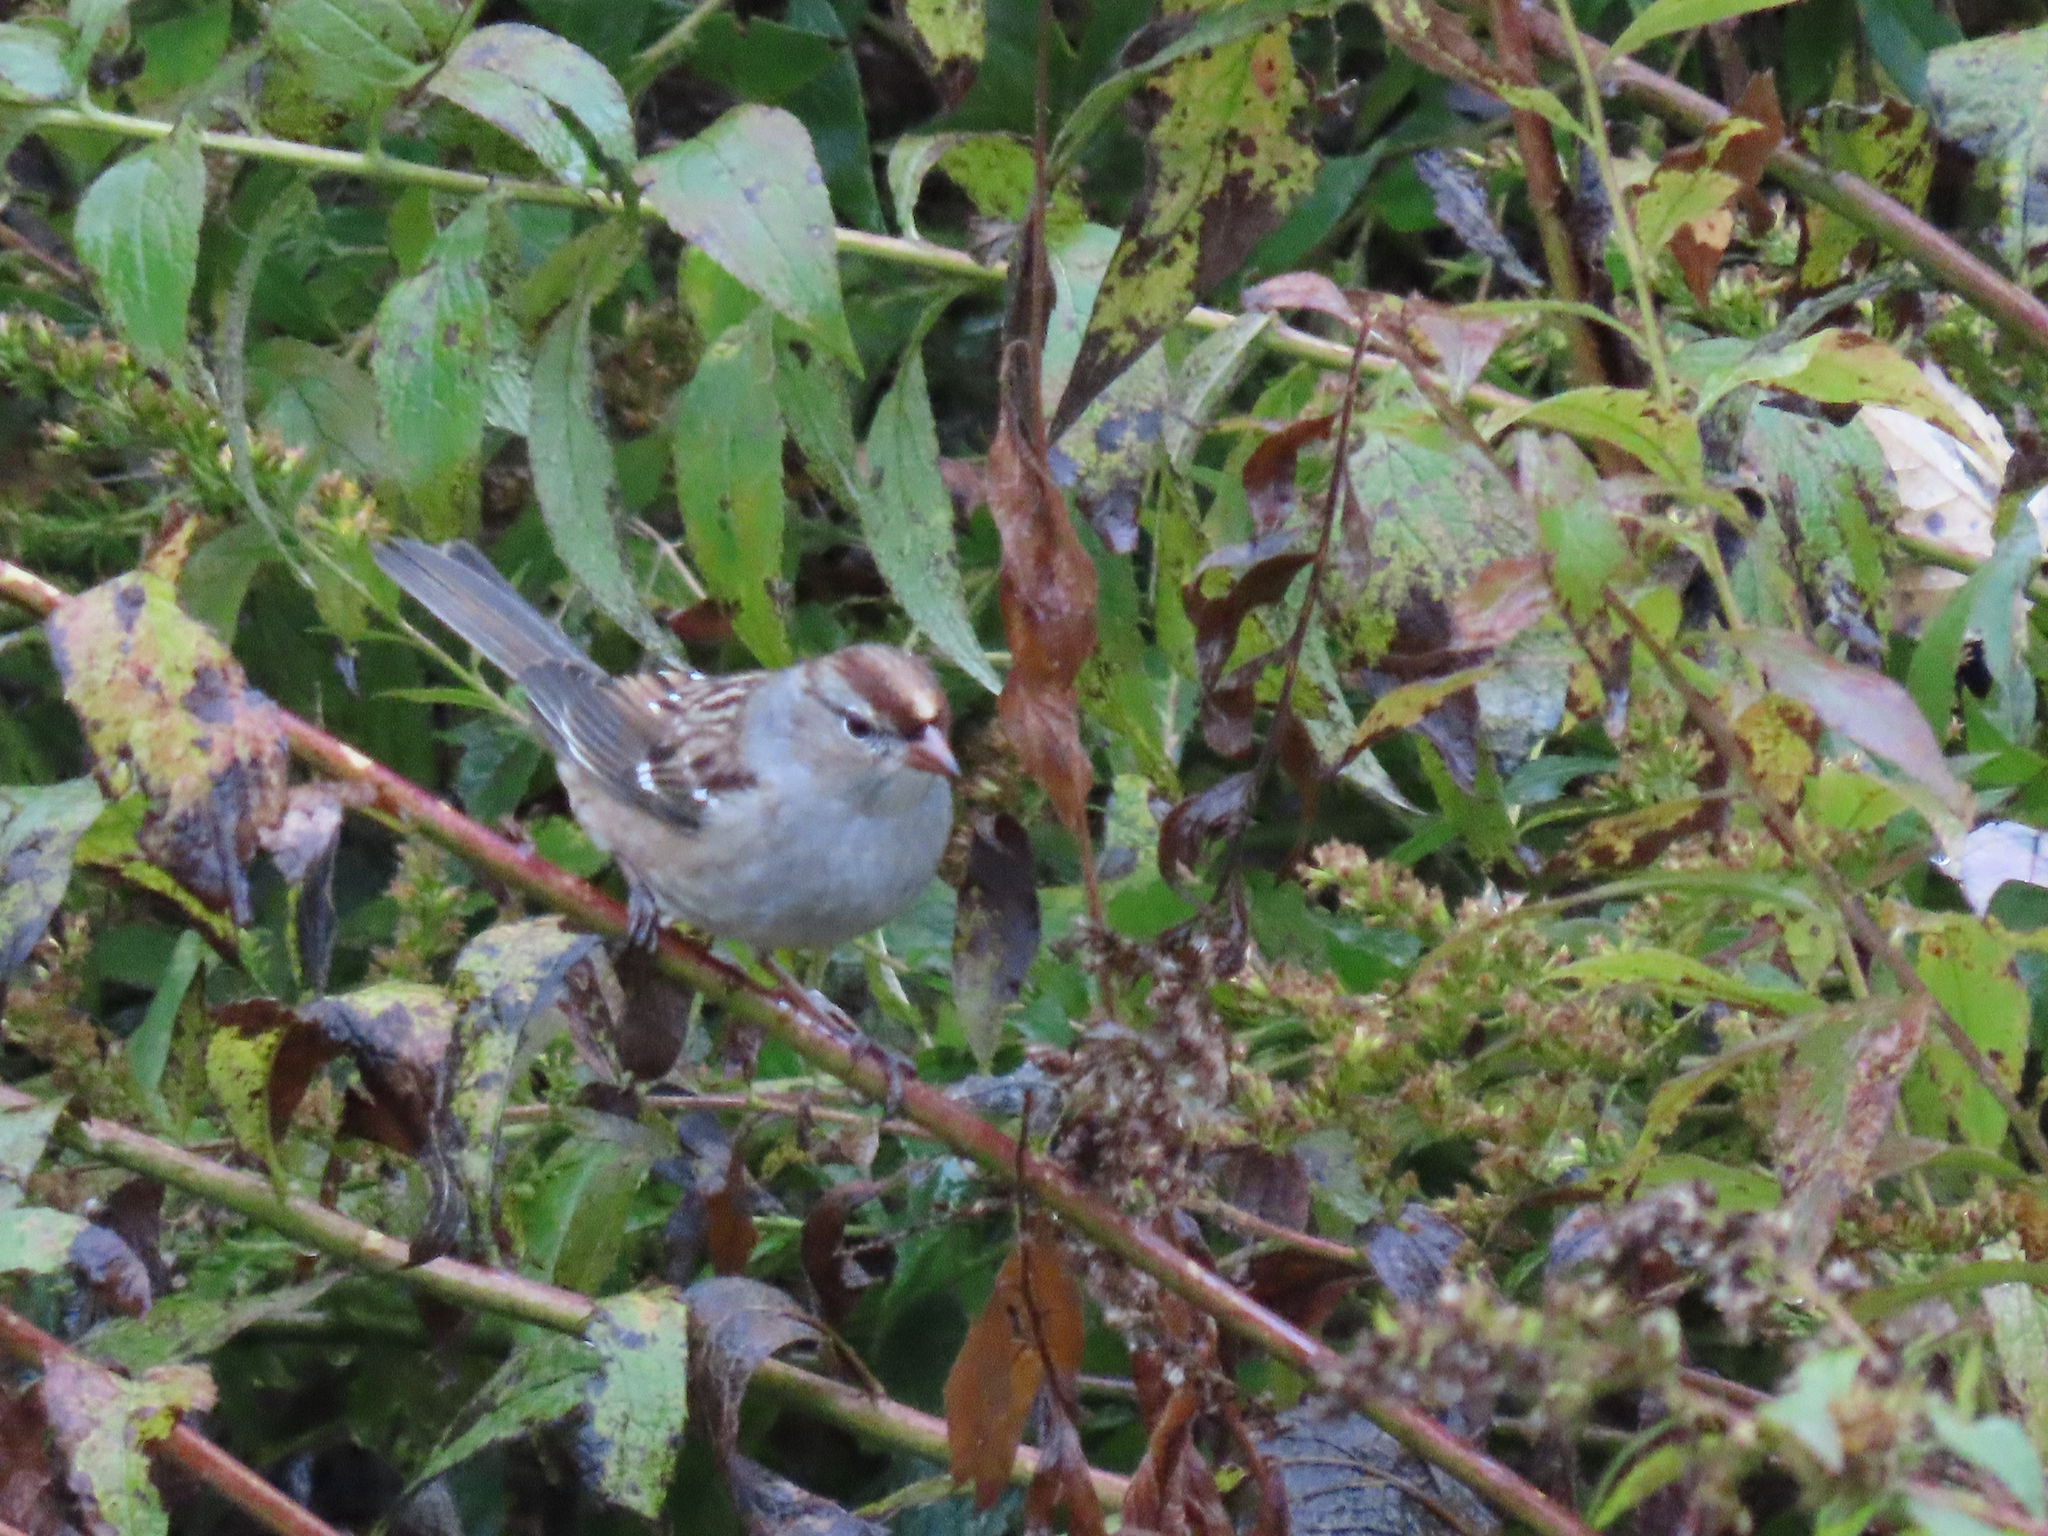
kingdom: Animalia
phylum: Chordata
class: Aves
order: Passeriformes
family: Passerellidae
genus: Zonotrichia
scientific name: Zonotrichia leucophrys
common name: White-crowned sparrow
